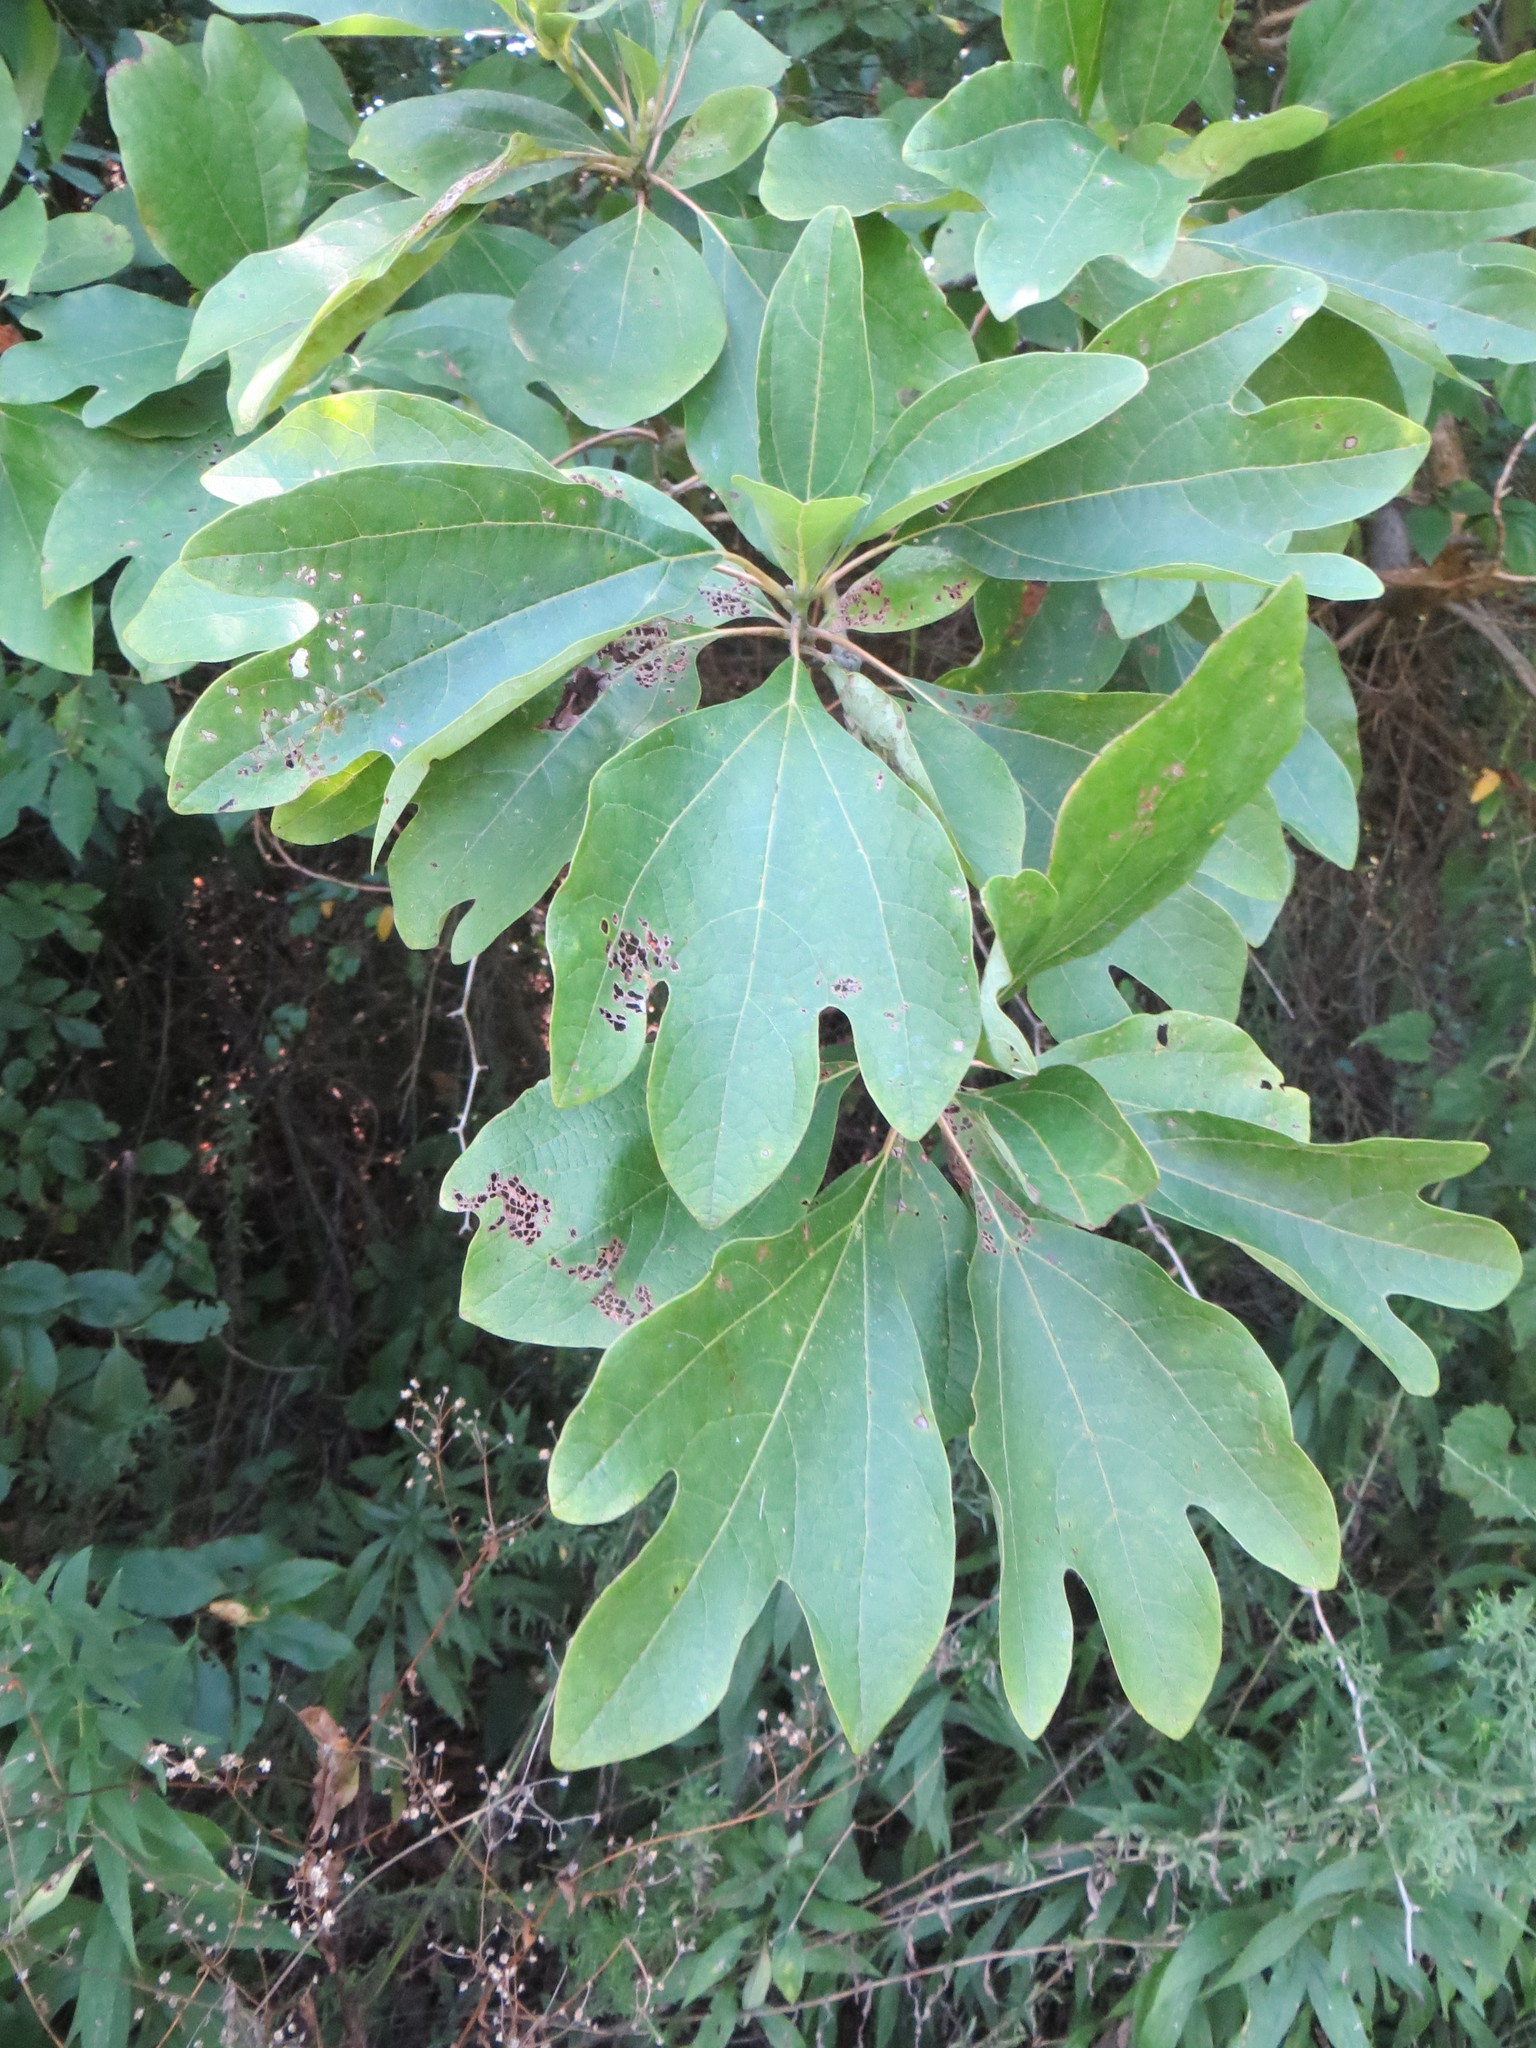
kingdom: Plantae
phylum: Tracheophyta
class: Magnoliopsida
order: Laurales
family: Lauraceae
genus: Sassafras
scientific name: Sassafras albidum
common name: Sassafras
